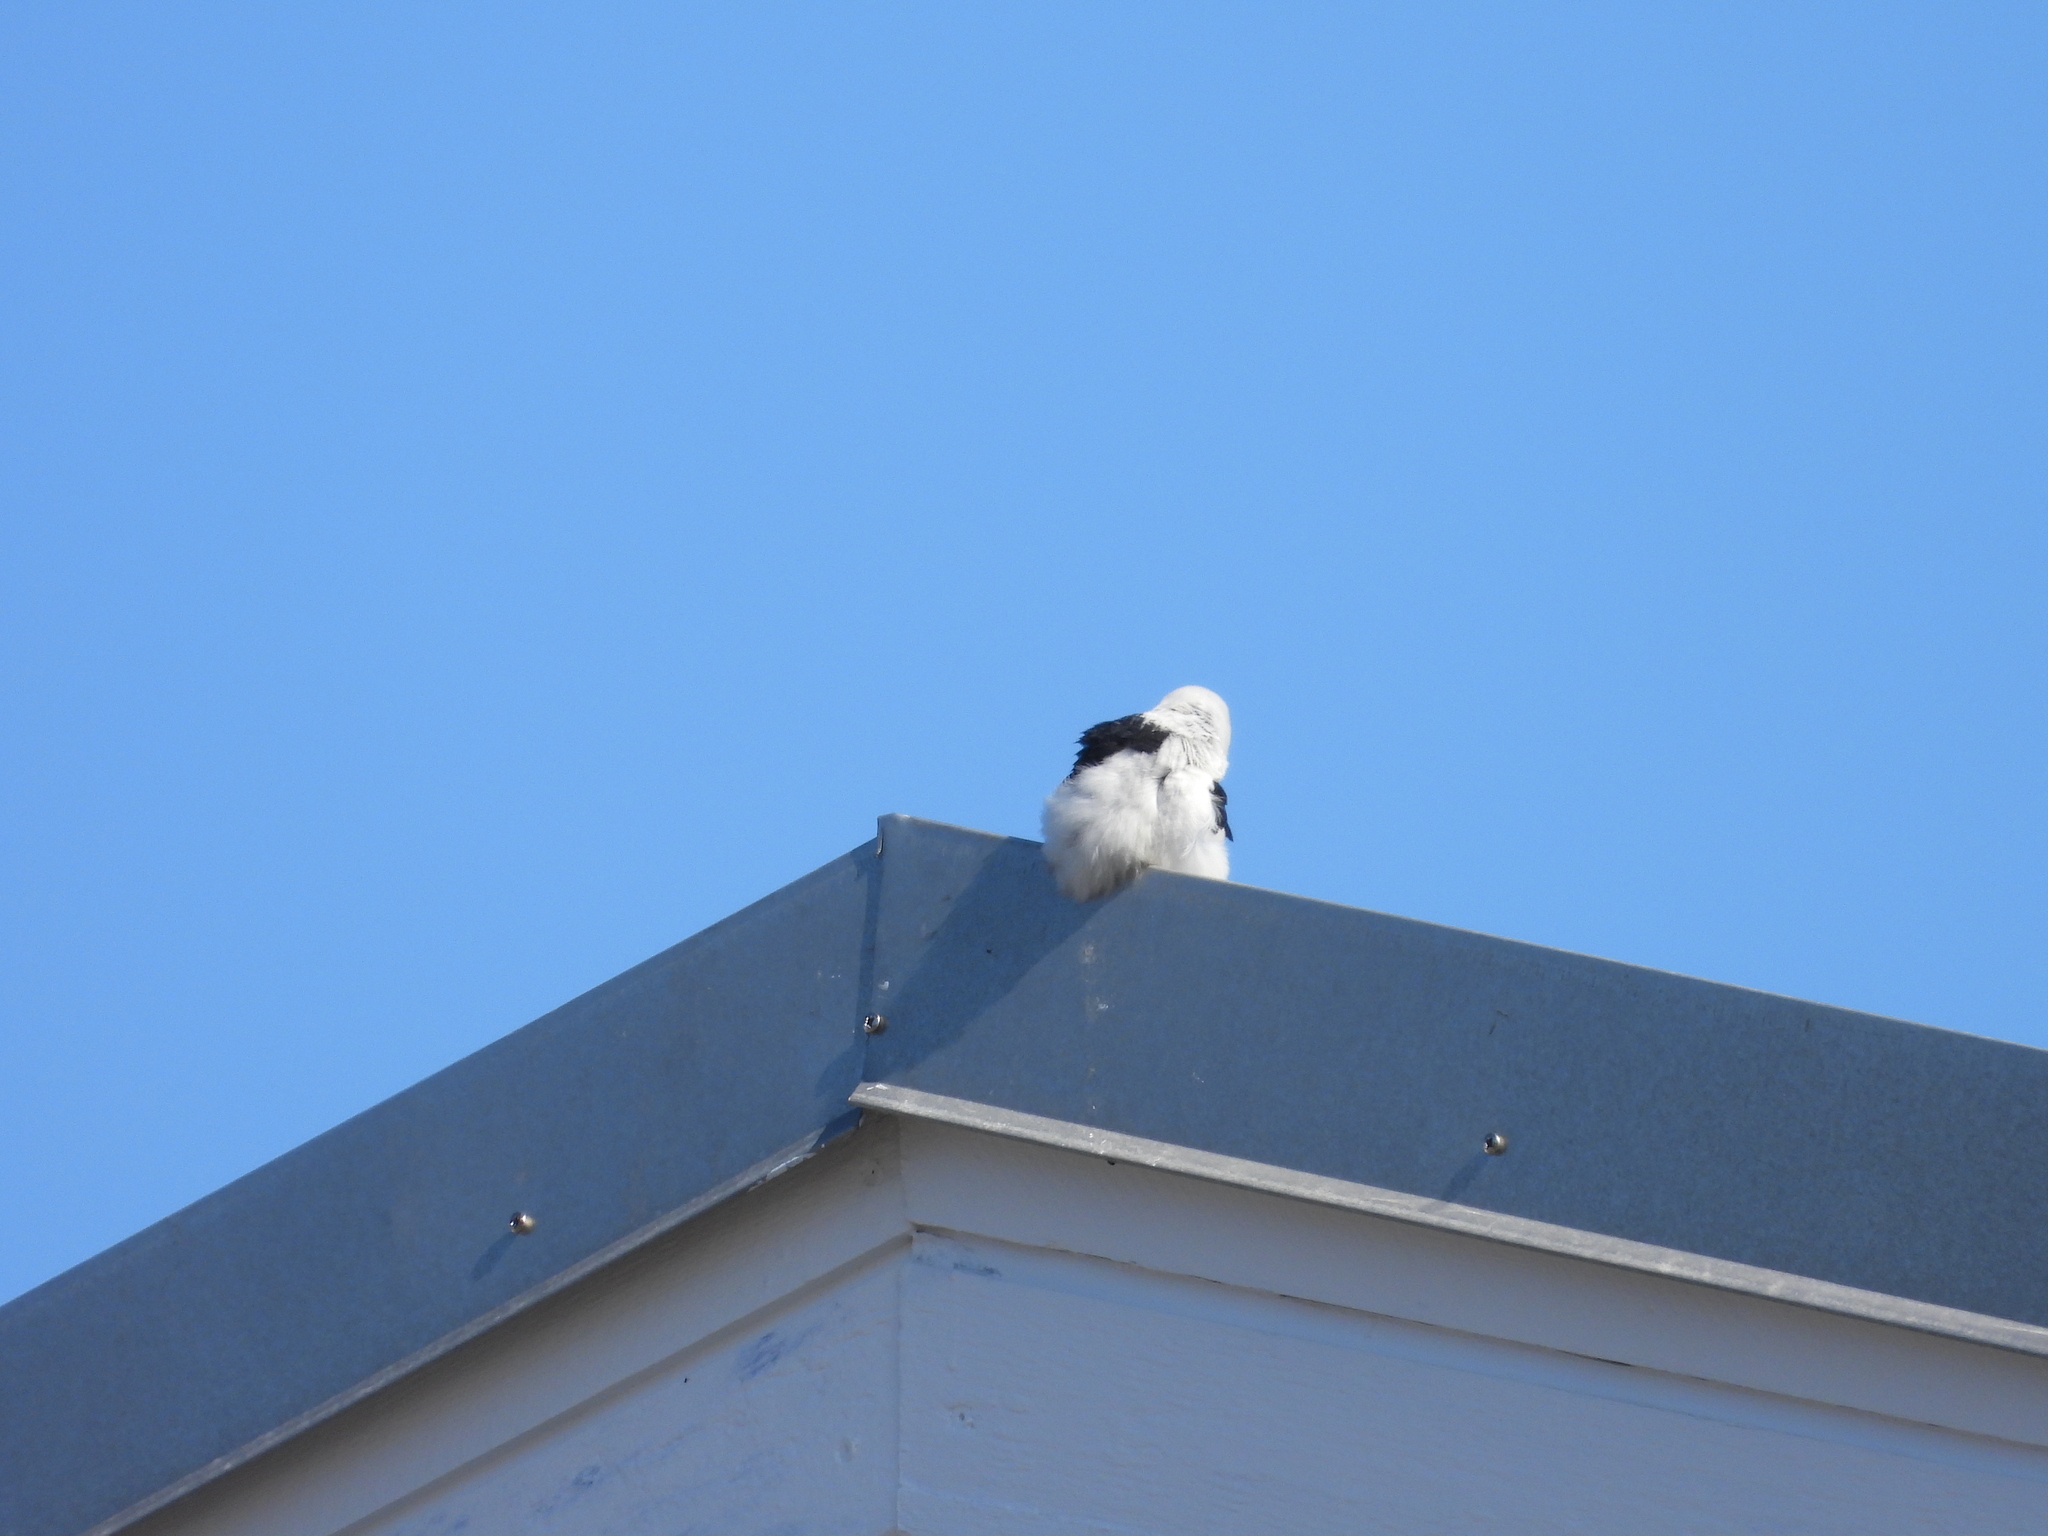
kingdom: Animalia
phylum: Chordata
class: Aves
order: Passeriformes
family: Calcariidae
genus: Plectrophenax
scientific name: Plectrophenax nivalis
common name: Snow bunting
